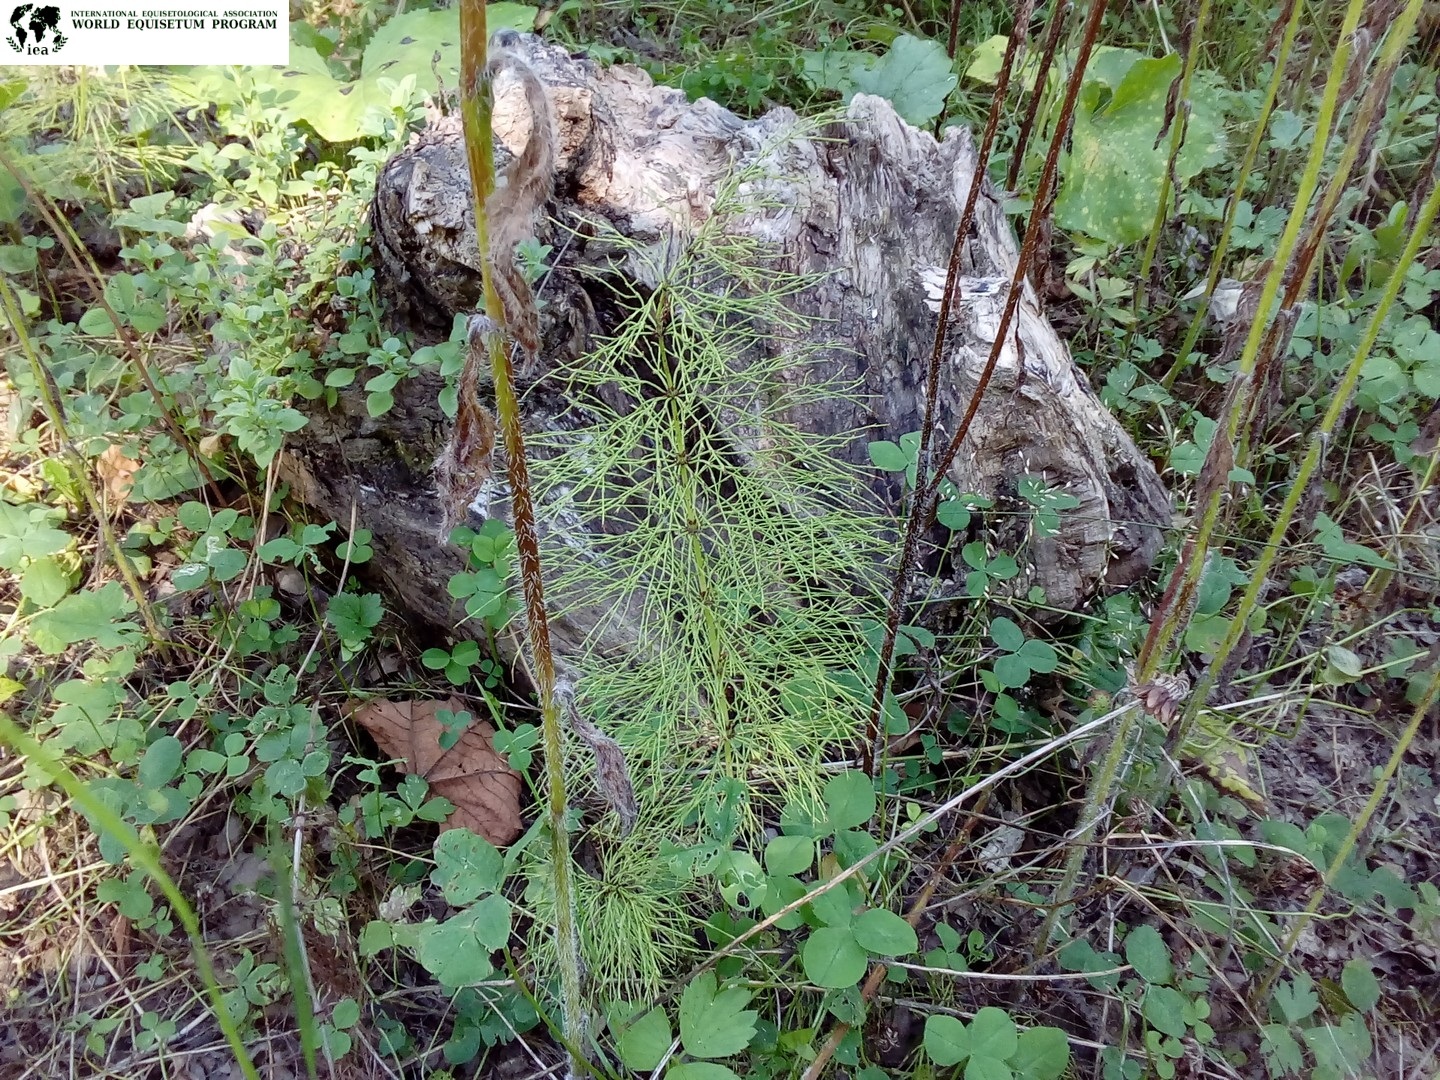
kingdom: Plantae
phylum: Tracheophyta
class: Polypodiopsida
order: Equisetales
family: Equisetaceae
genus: Equisetum
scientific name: Equisetum sylvaticum
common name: Wood horsetail
